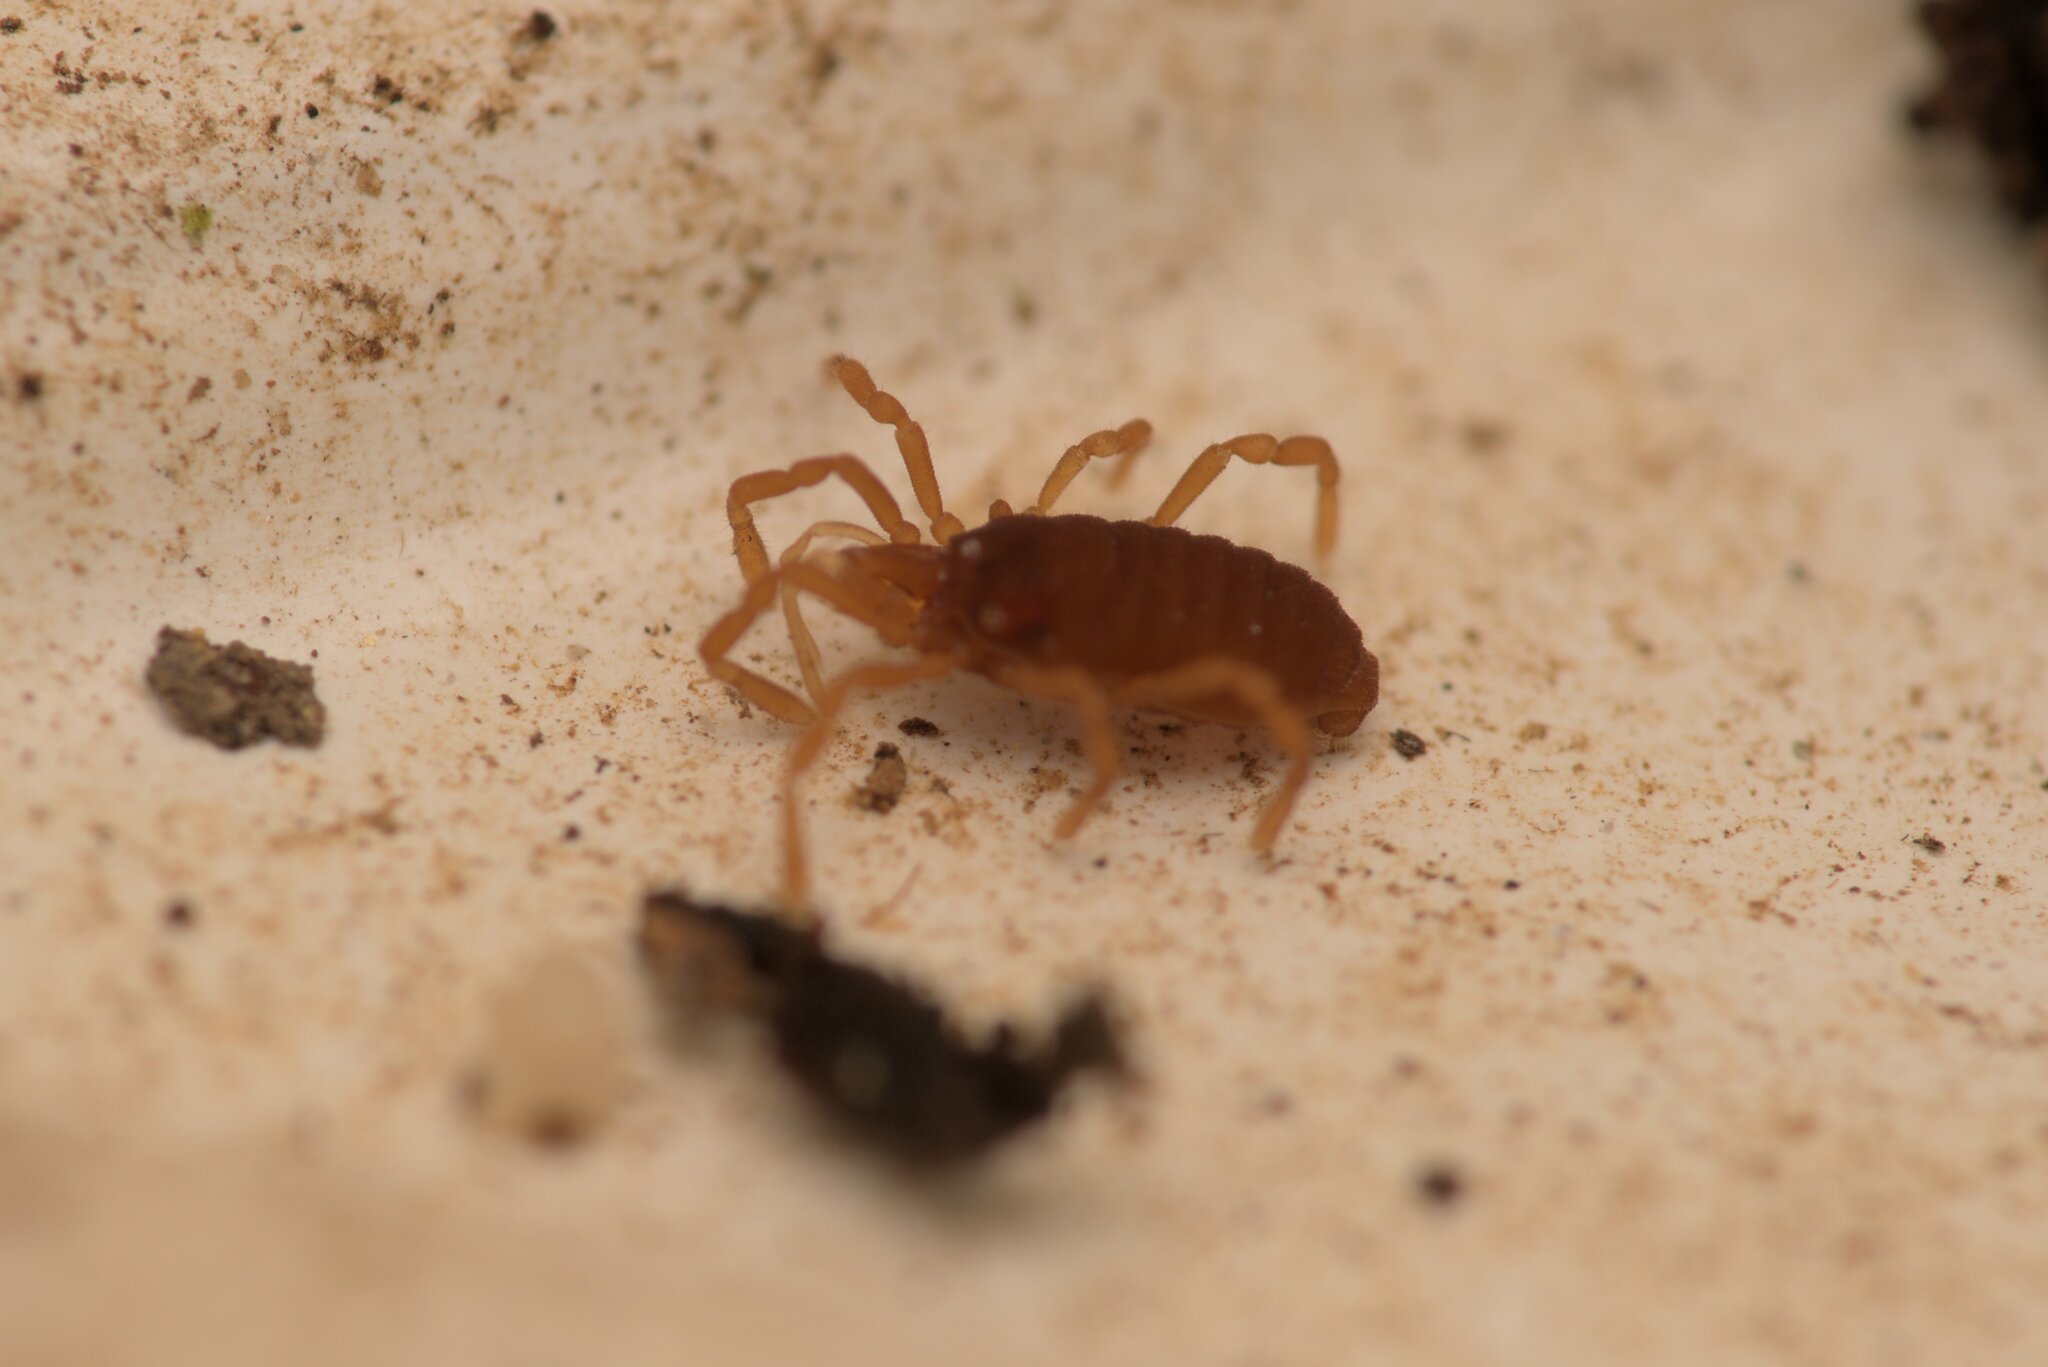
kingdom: Animalia
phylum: Arthropoda
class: Arachnida
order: Opiliones
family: Sironidae
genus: Siro
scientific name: Siro rubens
